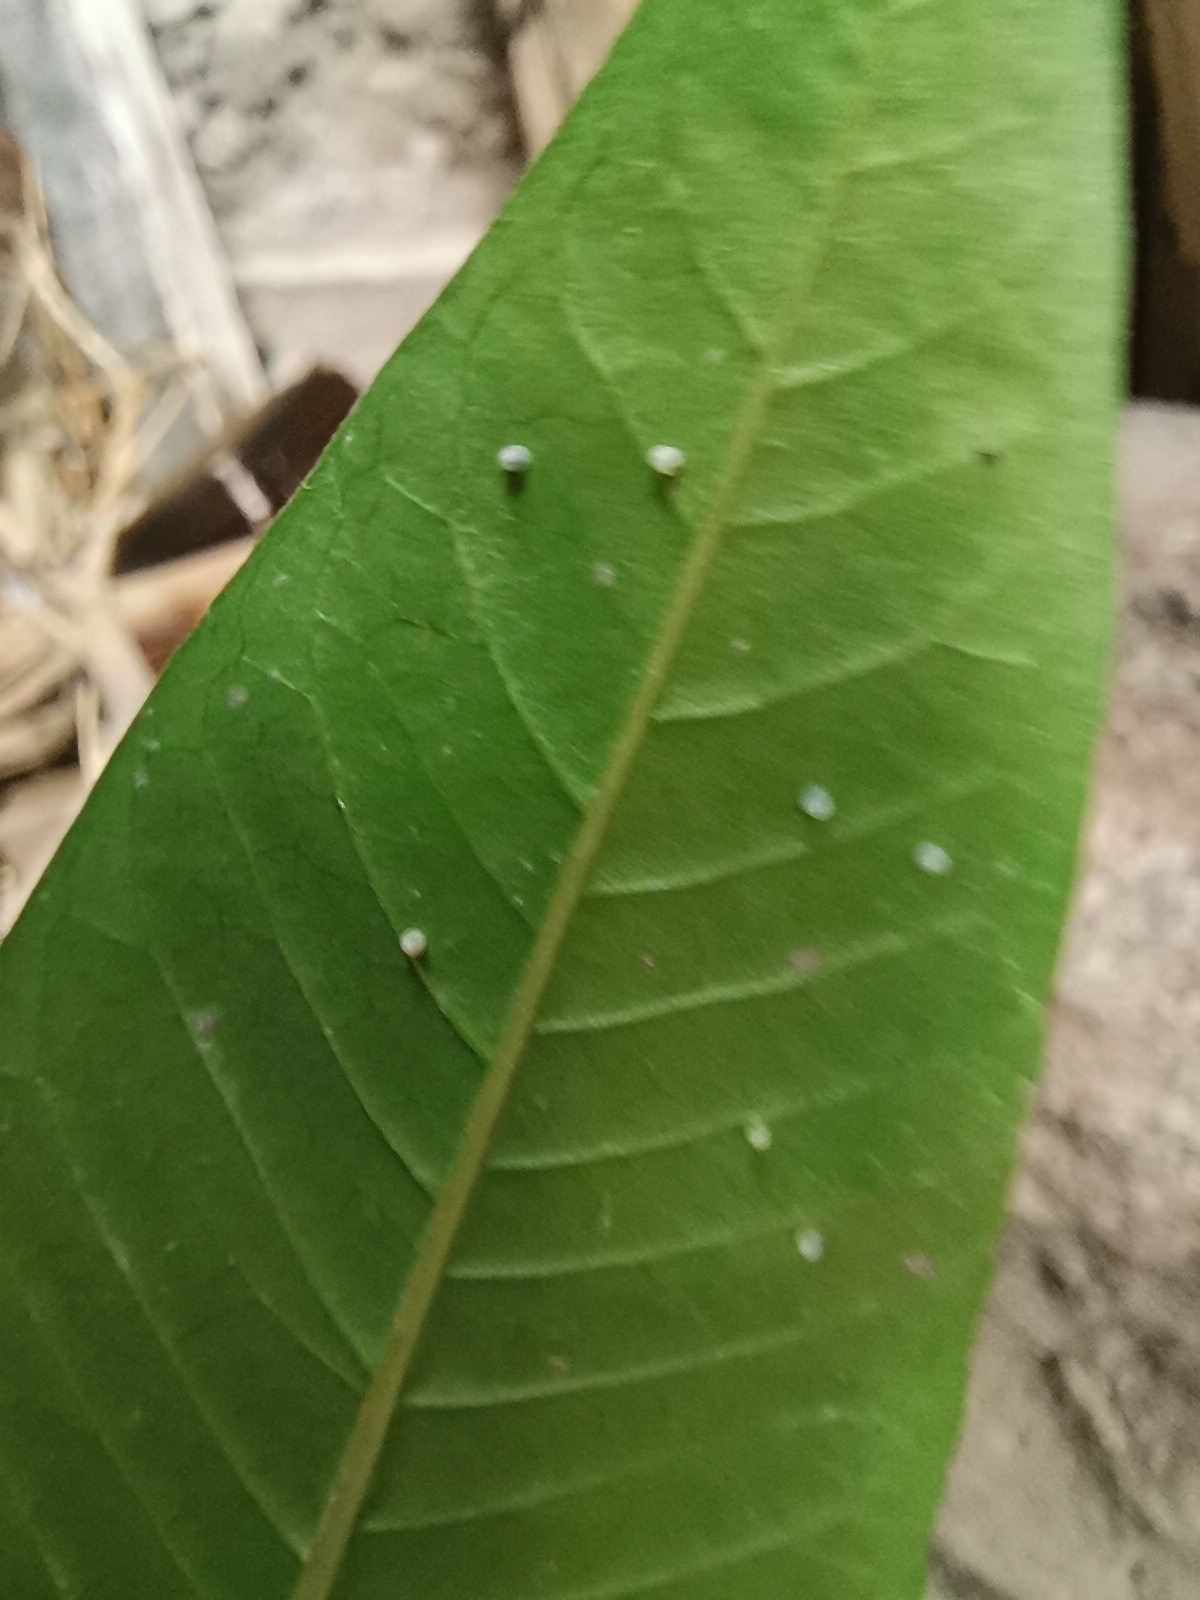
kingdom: Animalia
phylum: Arthropoda
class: Insecta
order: Lepidoptera
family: Nymphalidae
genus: Danaus
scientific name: Danaus plexippus
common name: Monarch
